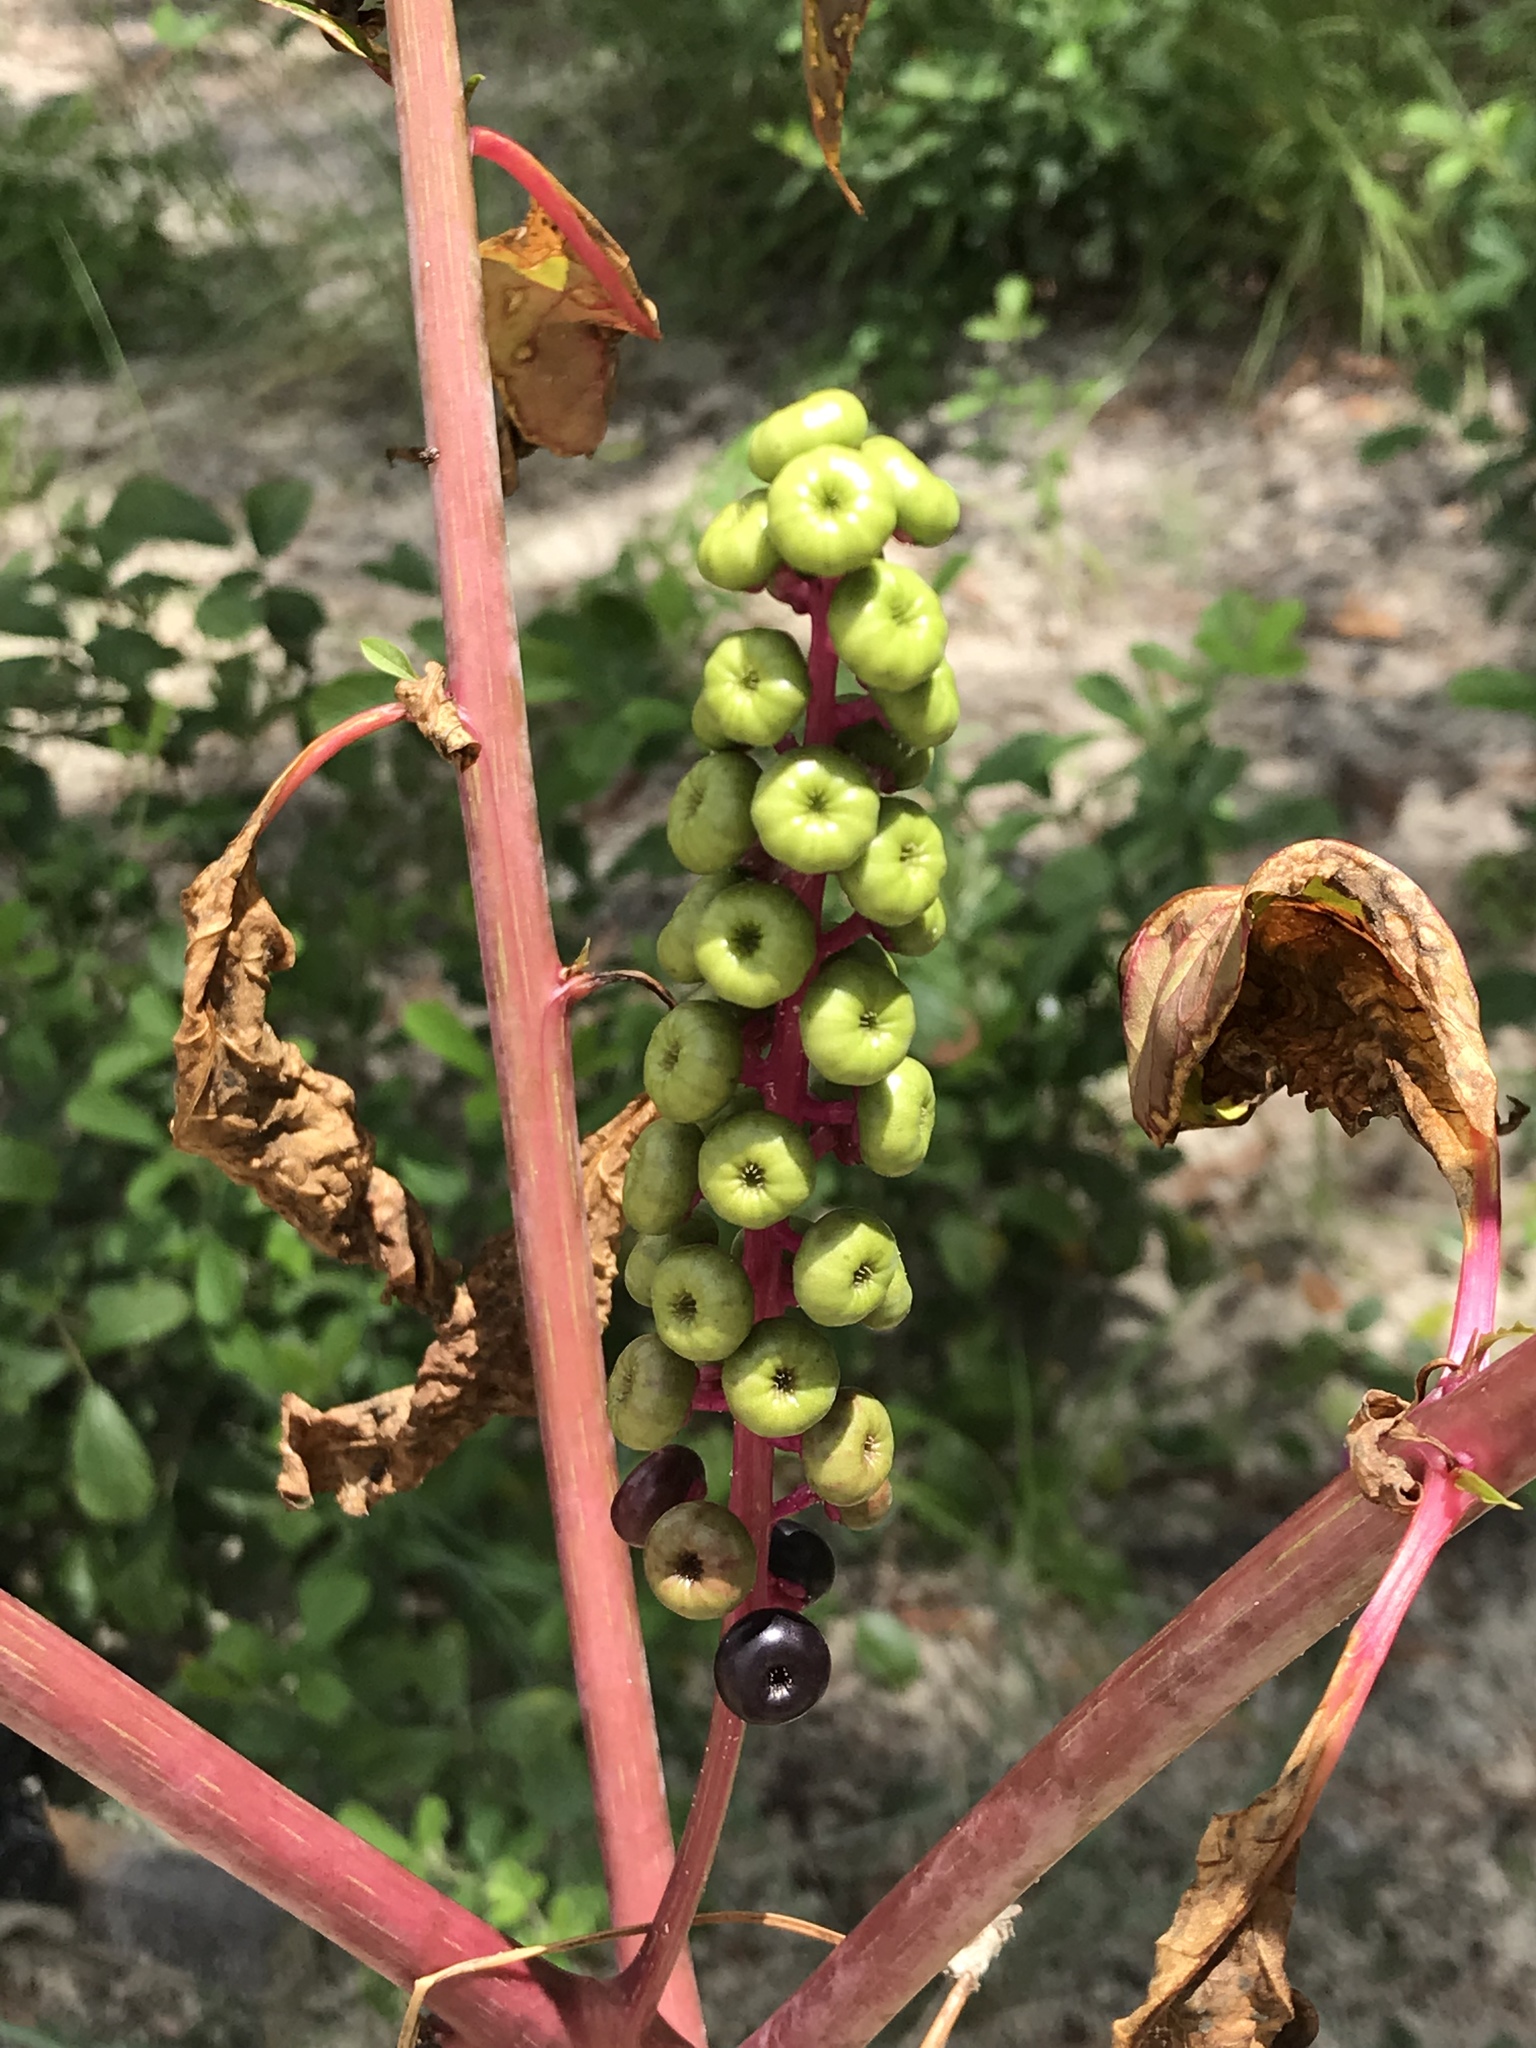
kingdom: Plantae
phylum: Tracheophyta
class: Magnoliopsida
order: Caryophyllales
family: Phytolaccaceae
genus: Phytolacca
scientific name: Phytolacca americana
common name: American pokeweed
